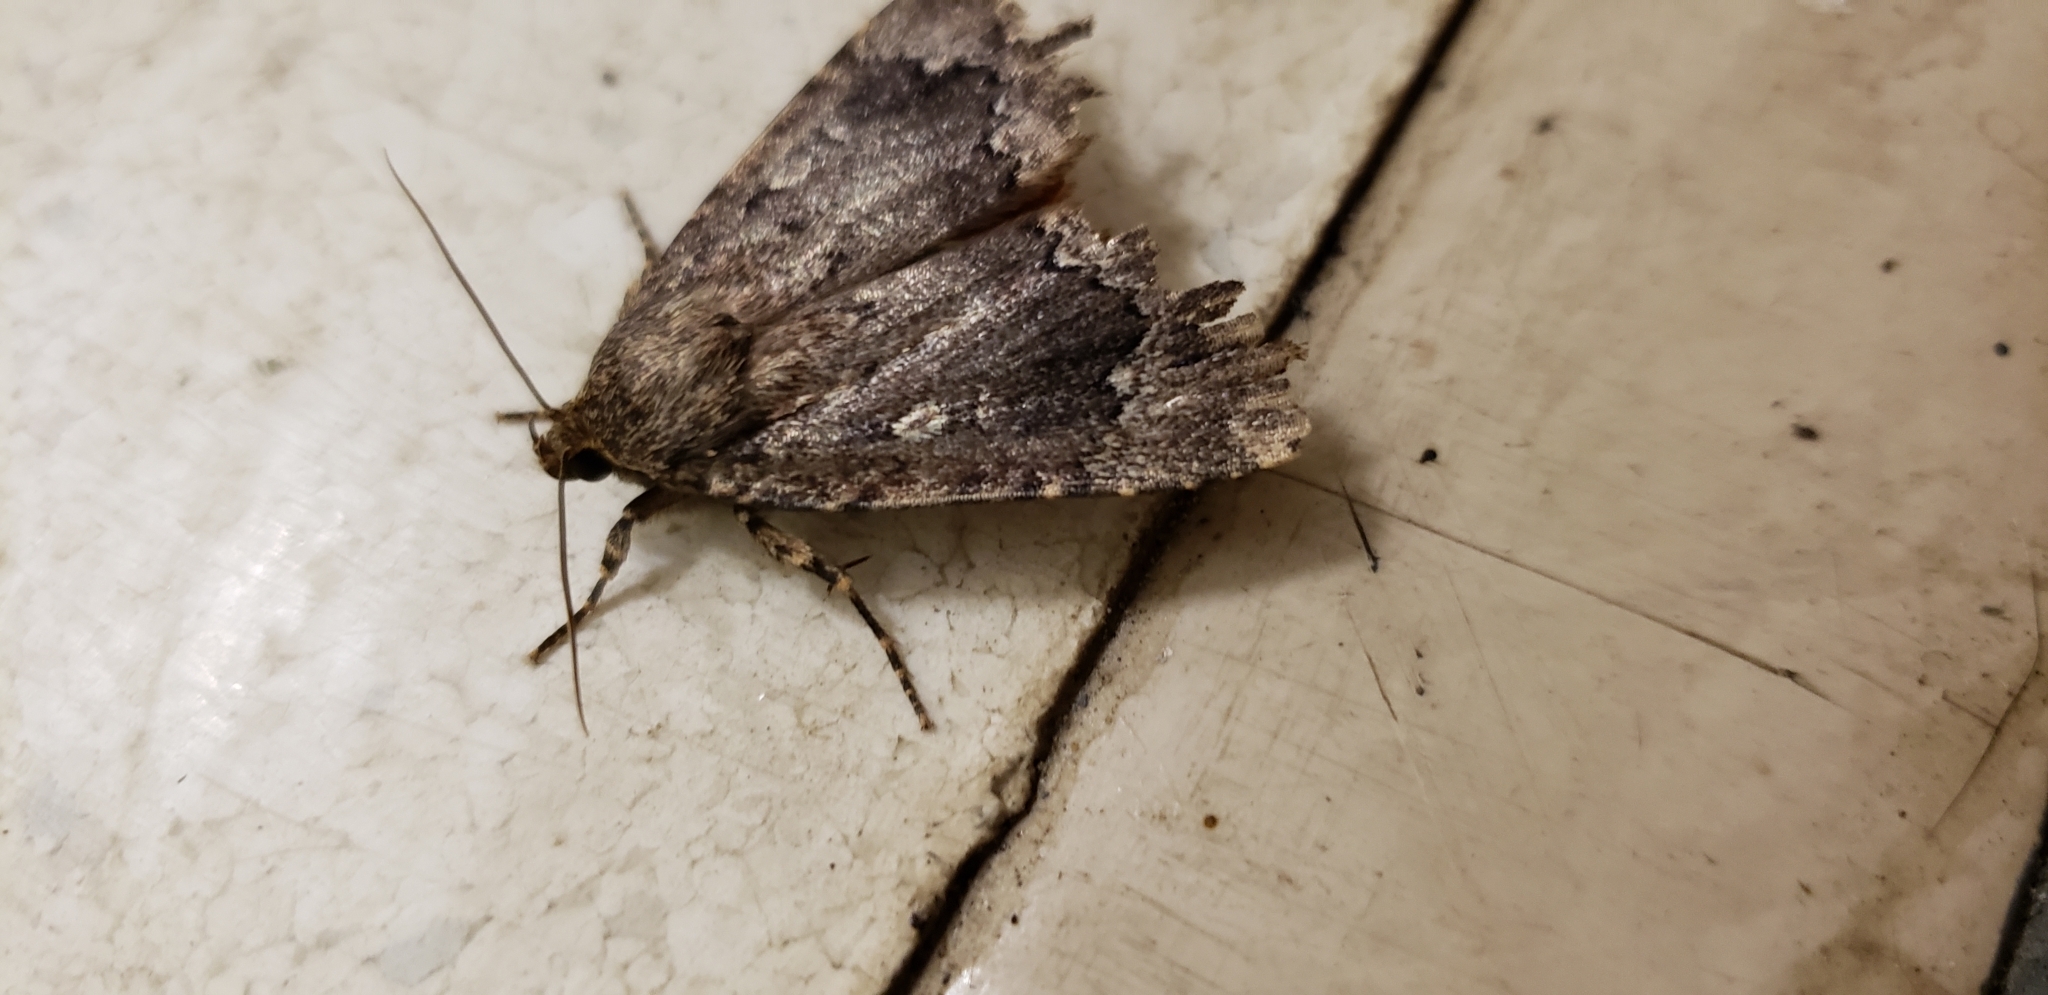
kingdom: Animalia
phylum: Arthropoda
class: Insecta
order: Lepidoptera
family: Noctuidae
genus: Amphipyra
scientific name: Amphipyra pyramidoides
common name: American copper underwing
